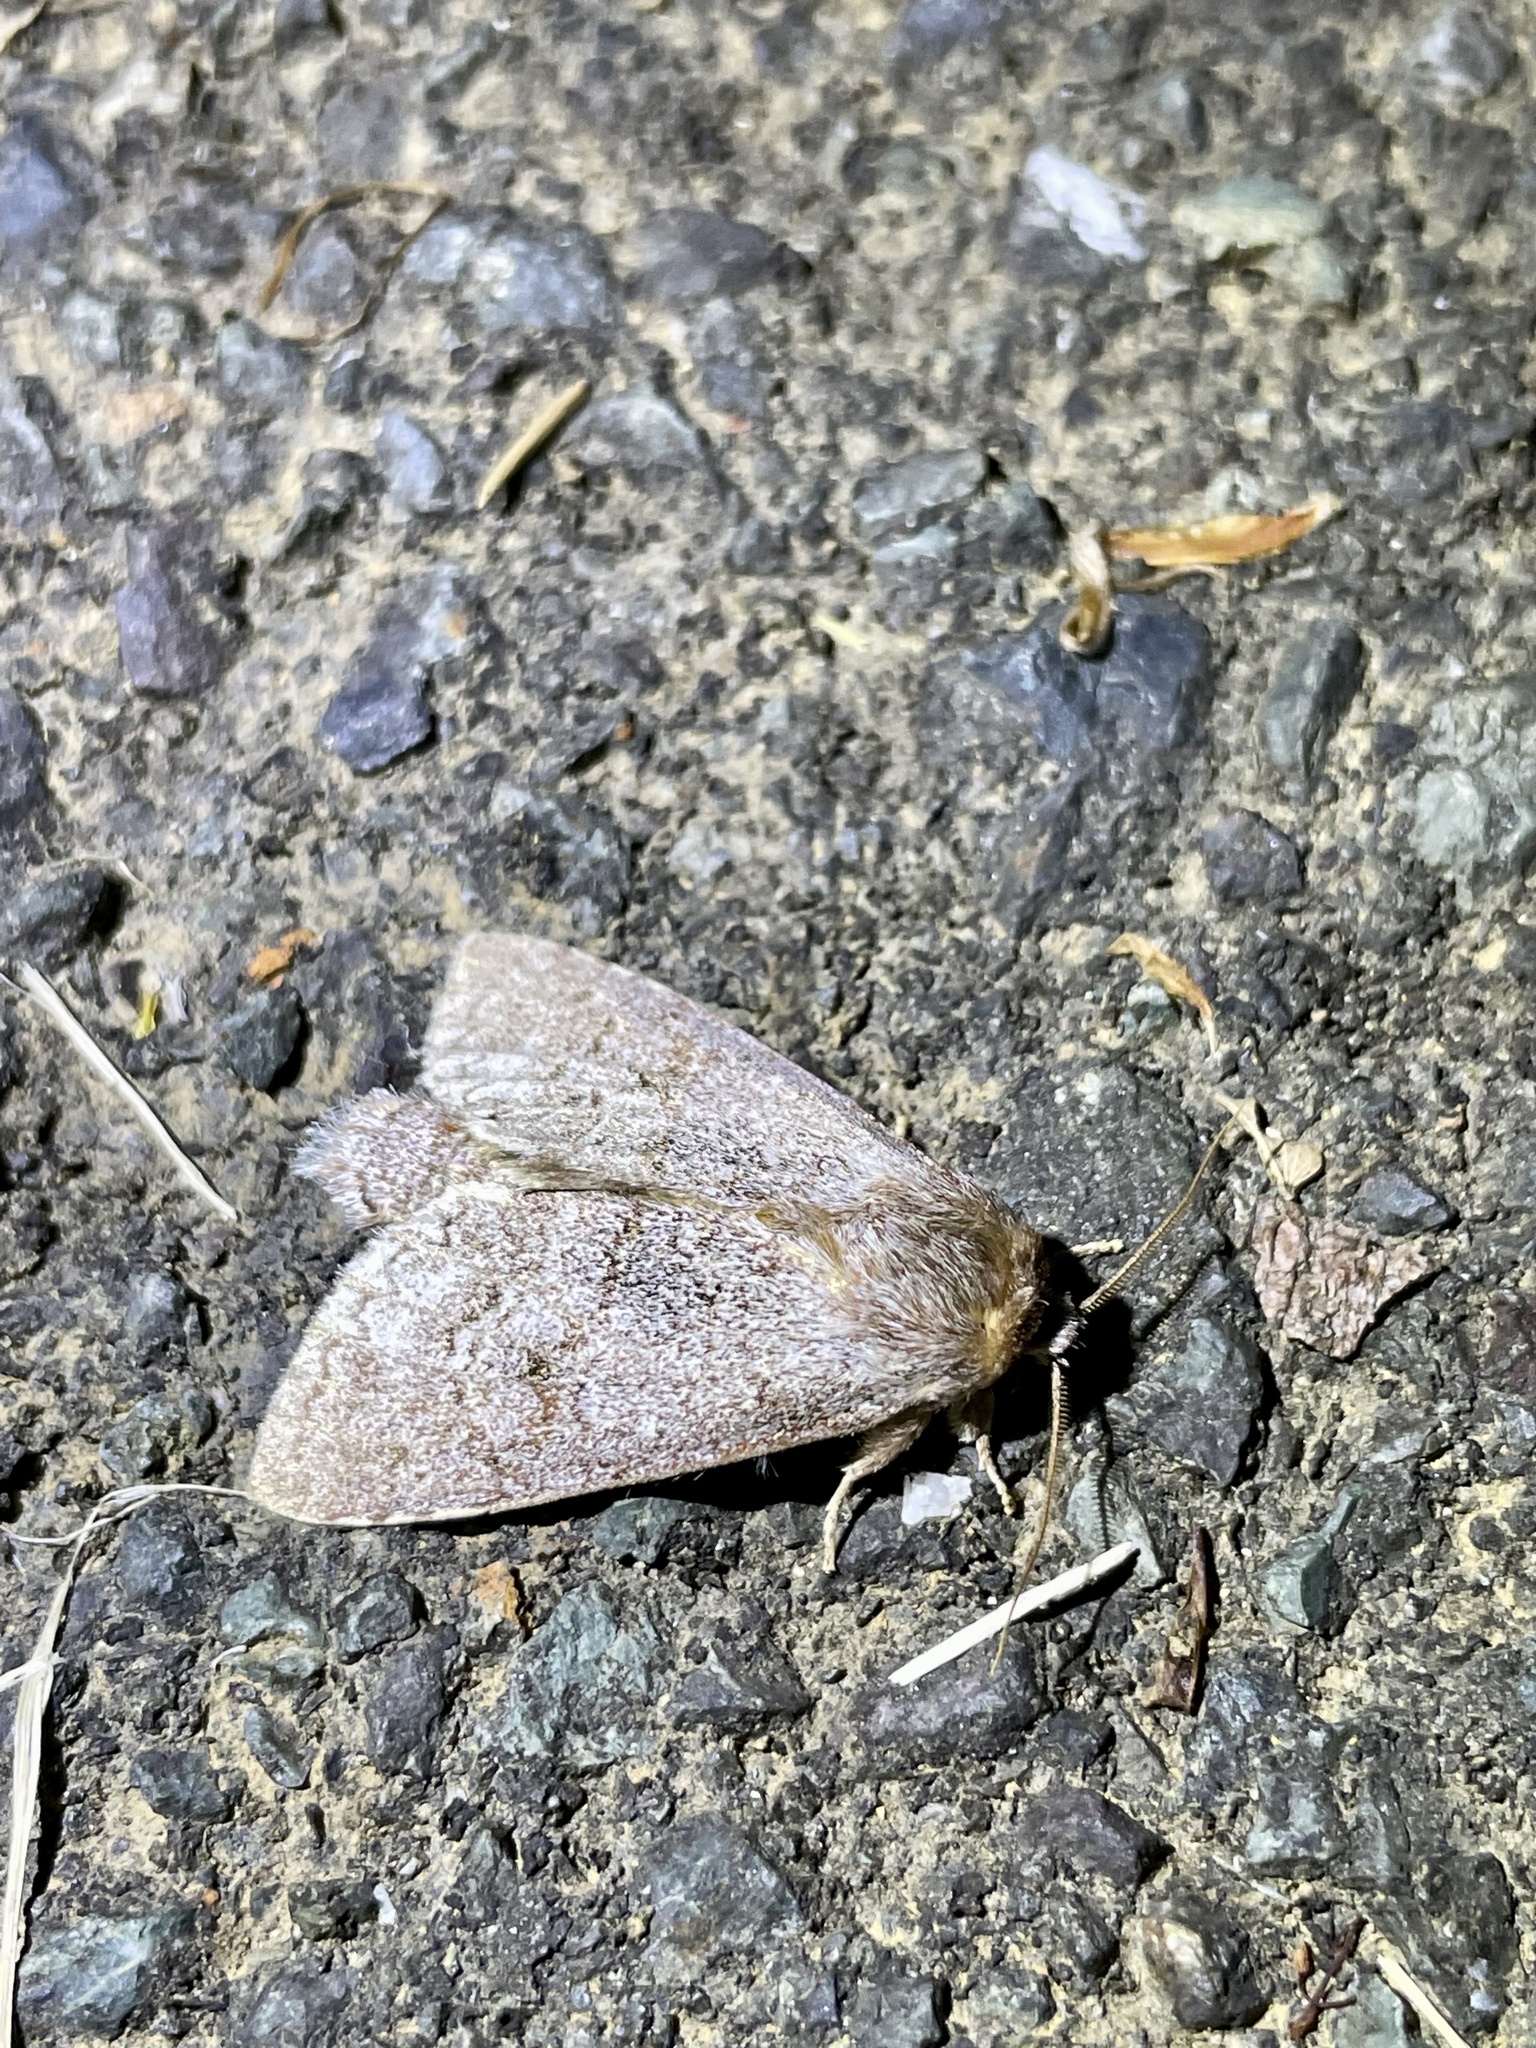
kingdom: Animalia
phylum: Arthropoda
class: Insecta
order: Lepidoptera
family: Notodontidae
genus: Mesophalera
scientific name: Mesophalera sigmata
